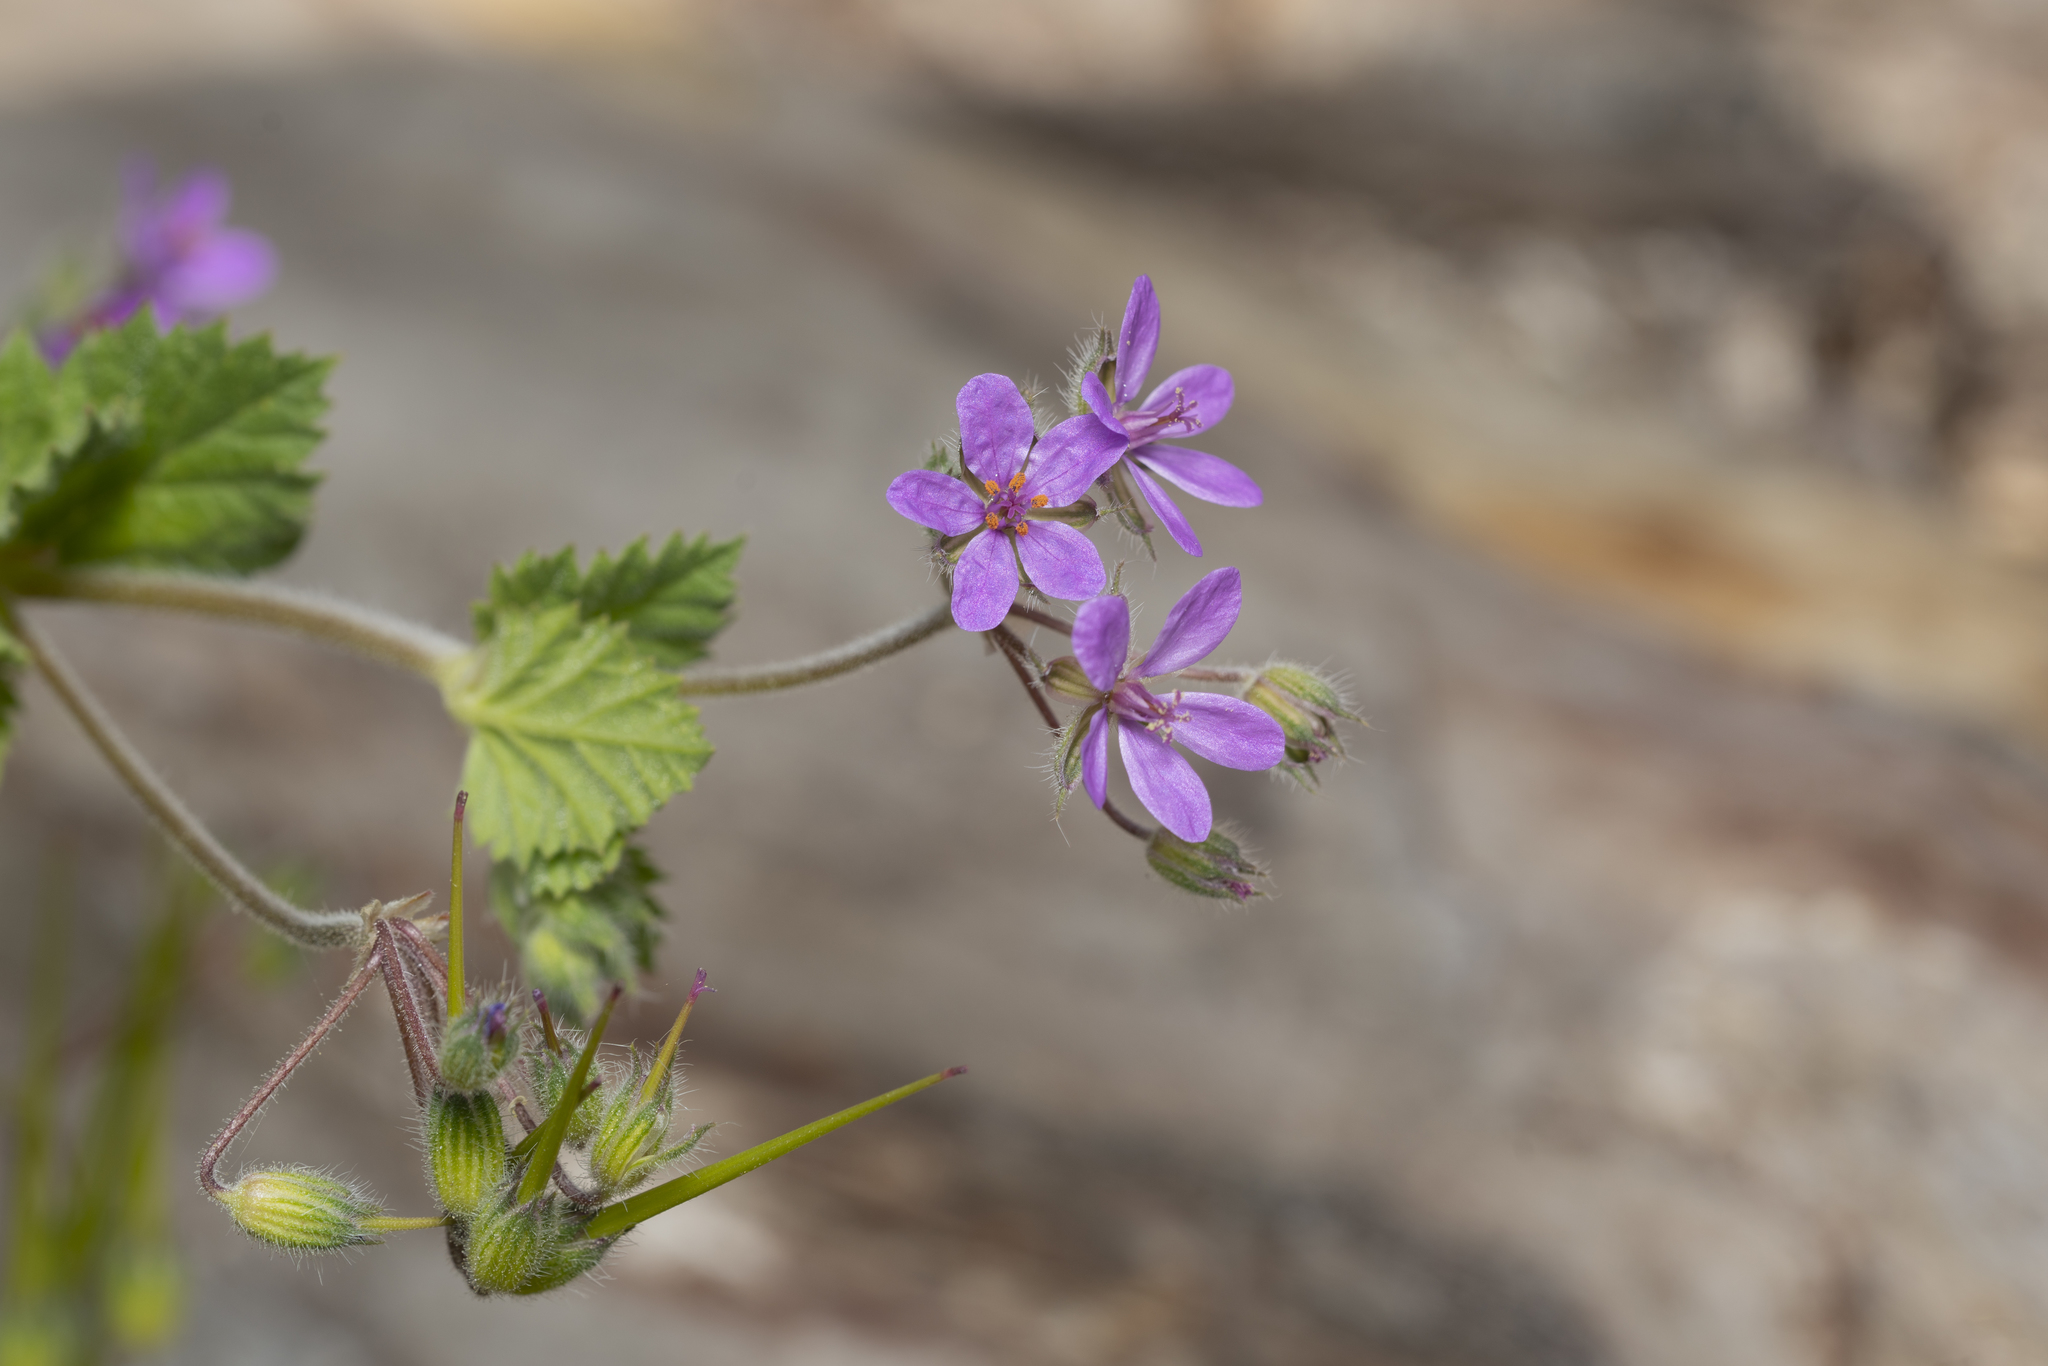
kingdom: Plantae
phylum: Tracheophyta
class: Magnoliopsida
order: Geraniales
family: Geraniaceae
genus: Erodium
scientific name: Erodium malacoides
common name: Soft stork's-bill
